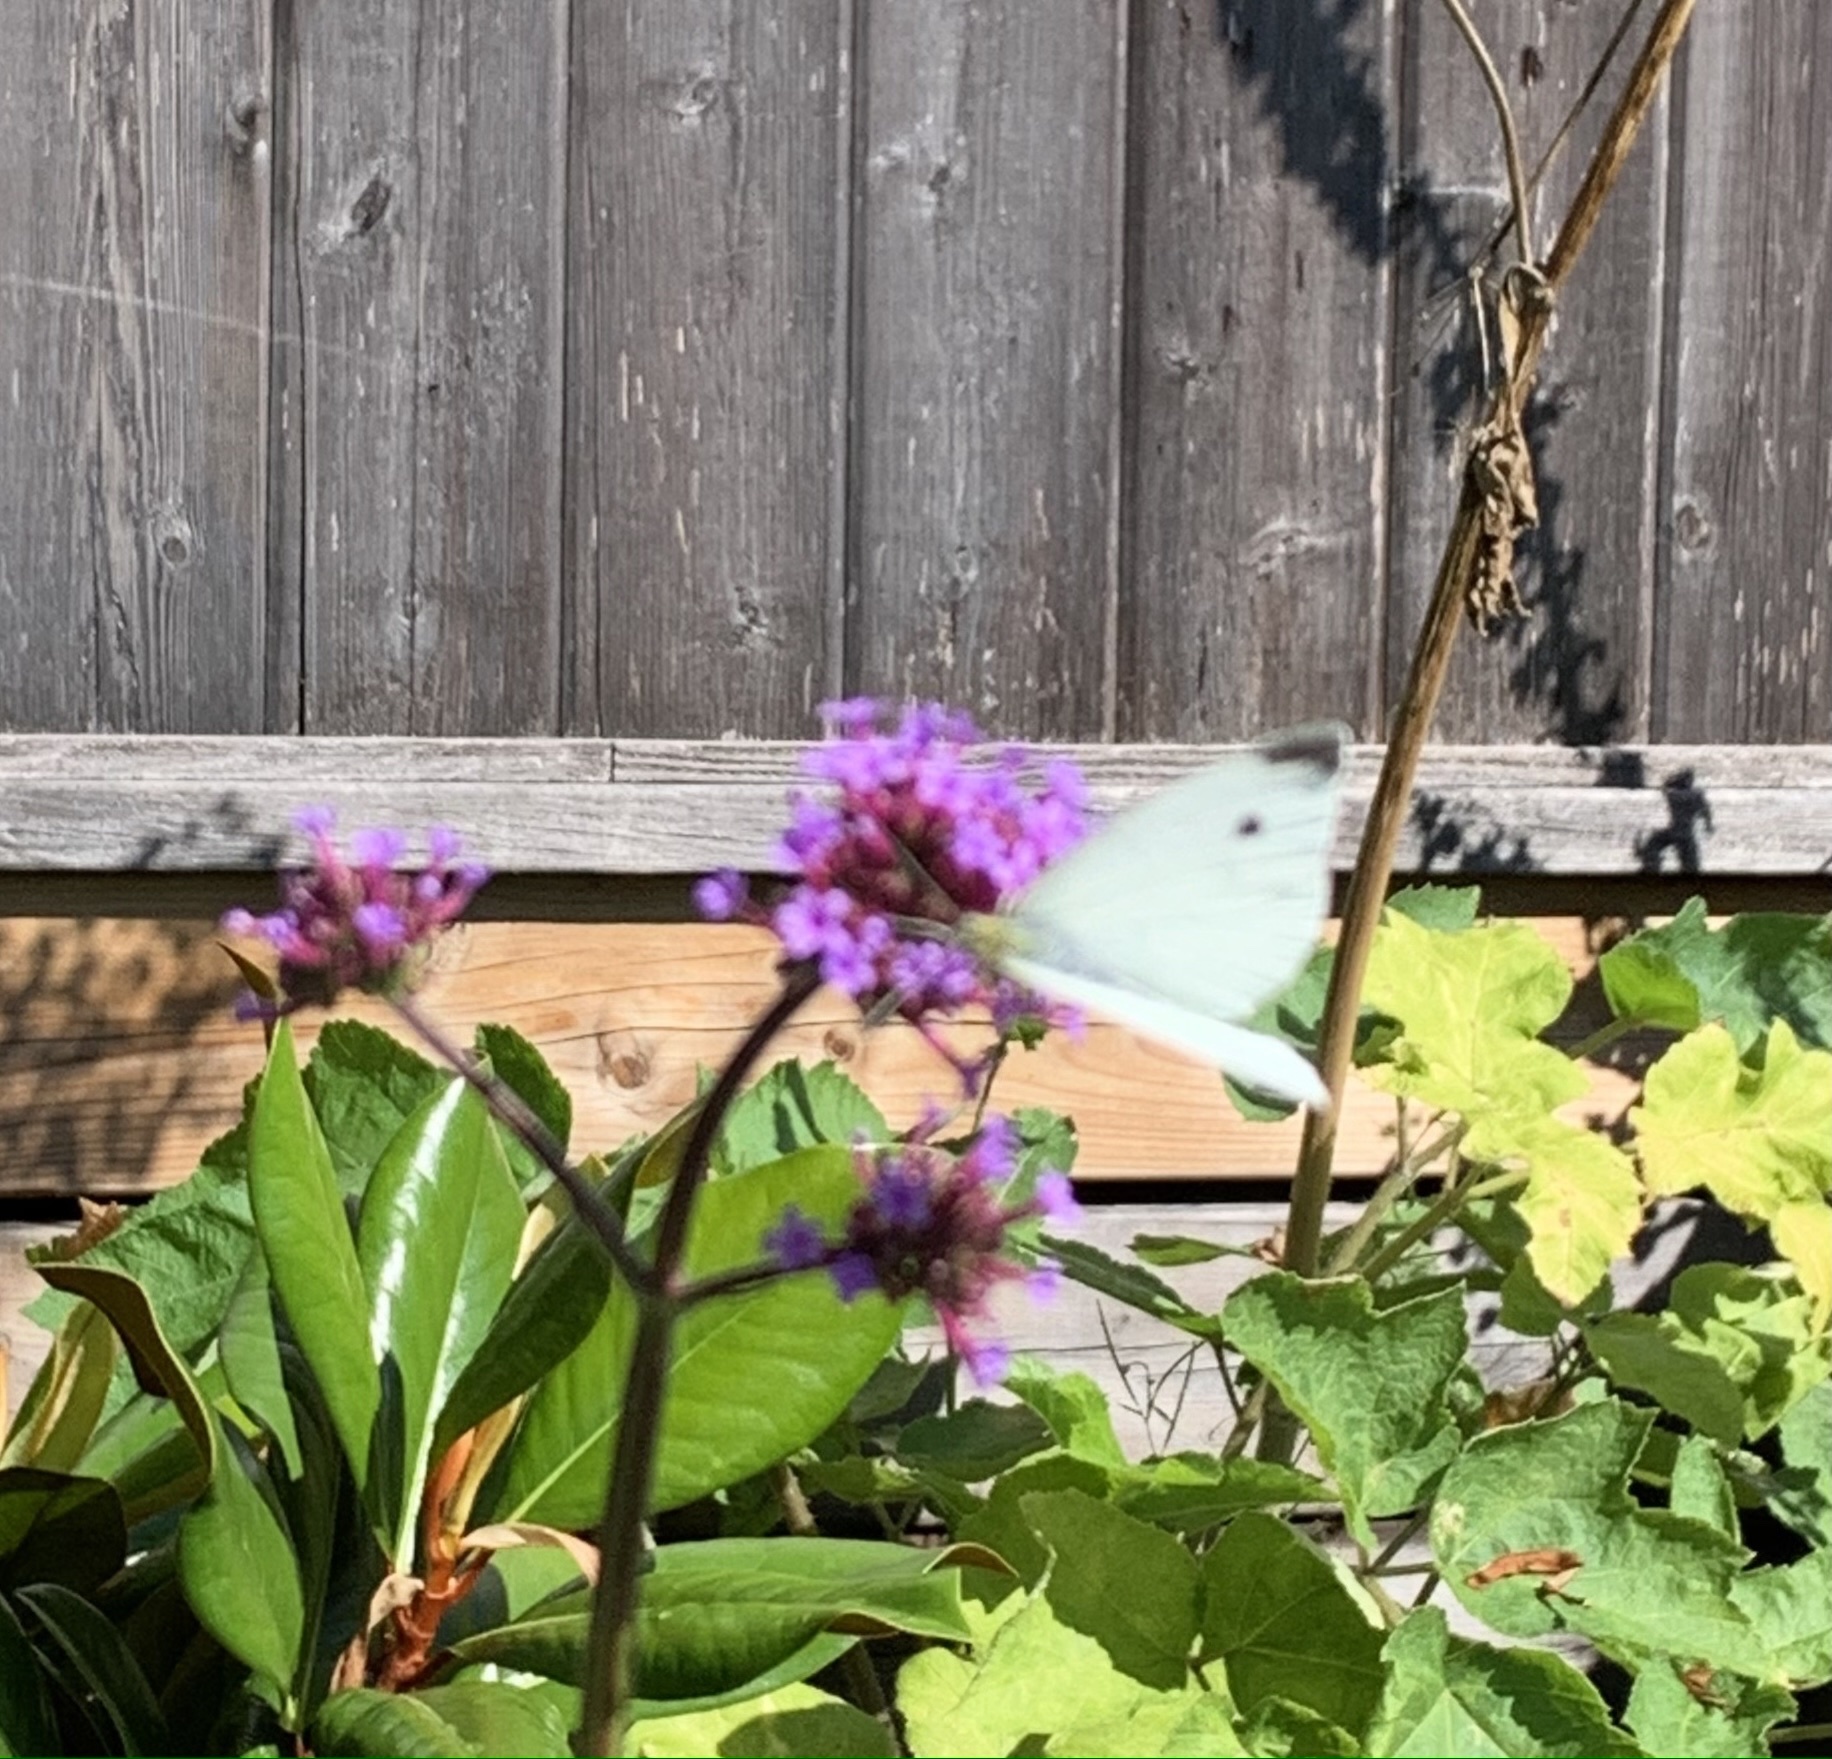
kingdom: Animalia
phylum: Arthropoda
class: Insecta
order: Lepidoptera
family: Pieridae
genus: Pieris
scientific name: Pieris rapae
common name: Small white
